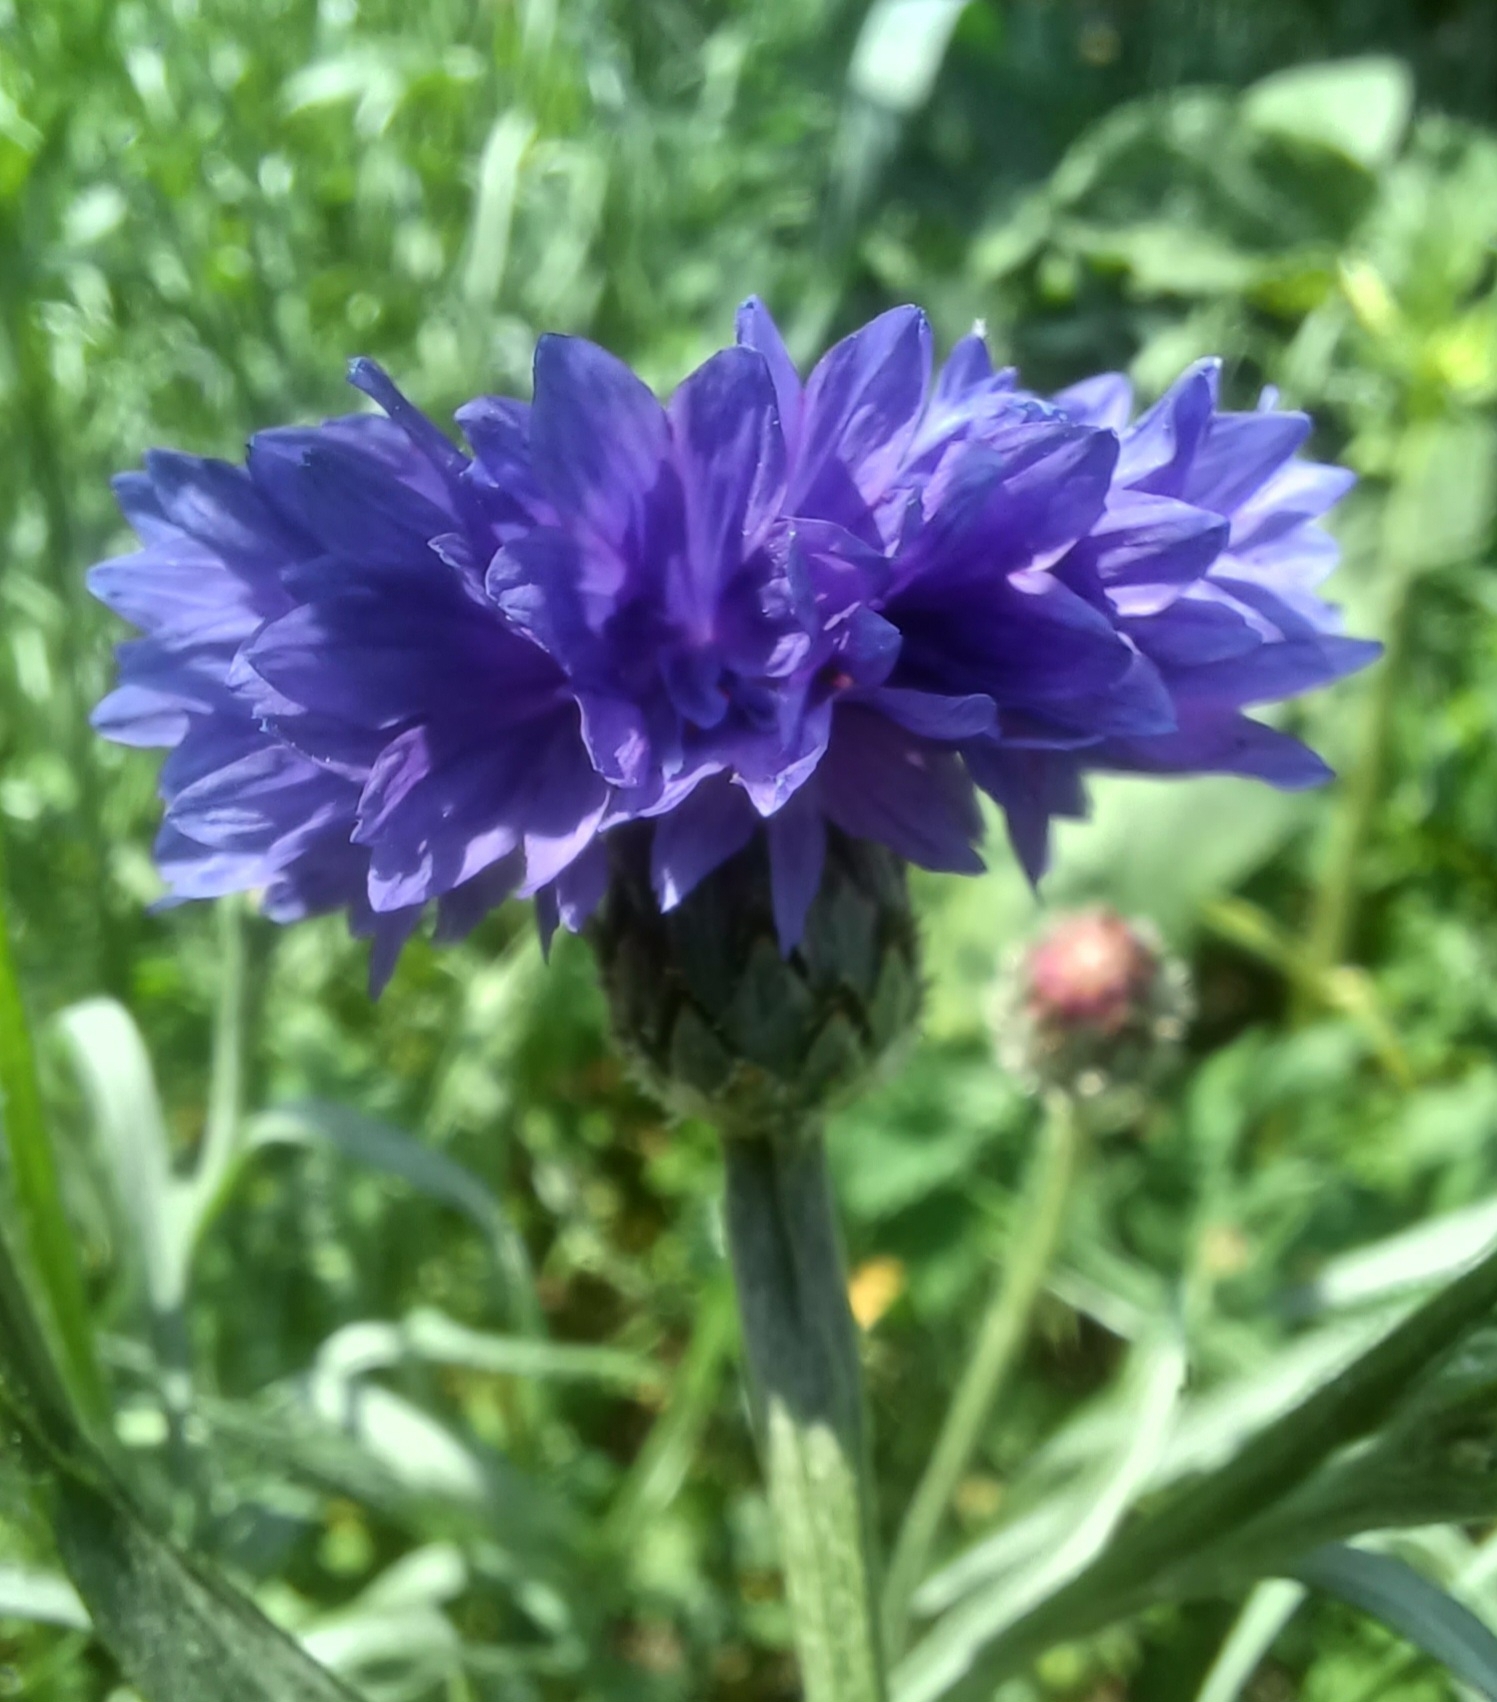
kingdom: Plantae
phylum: Tracheophyta
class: Magnoliopsida
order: Asterales
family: Asteraceae
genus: Centaurea
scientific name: Centaurea cyanus
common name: Cornflower
